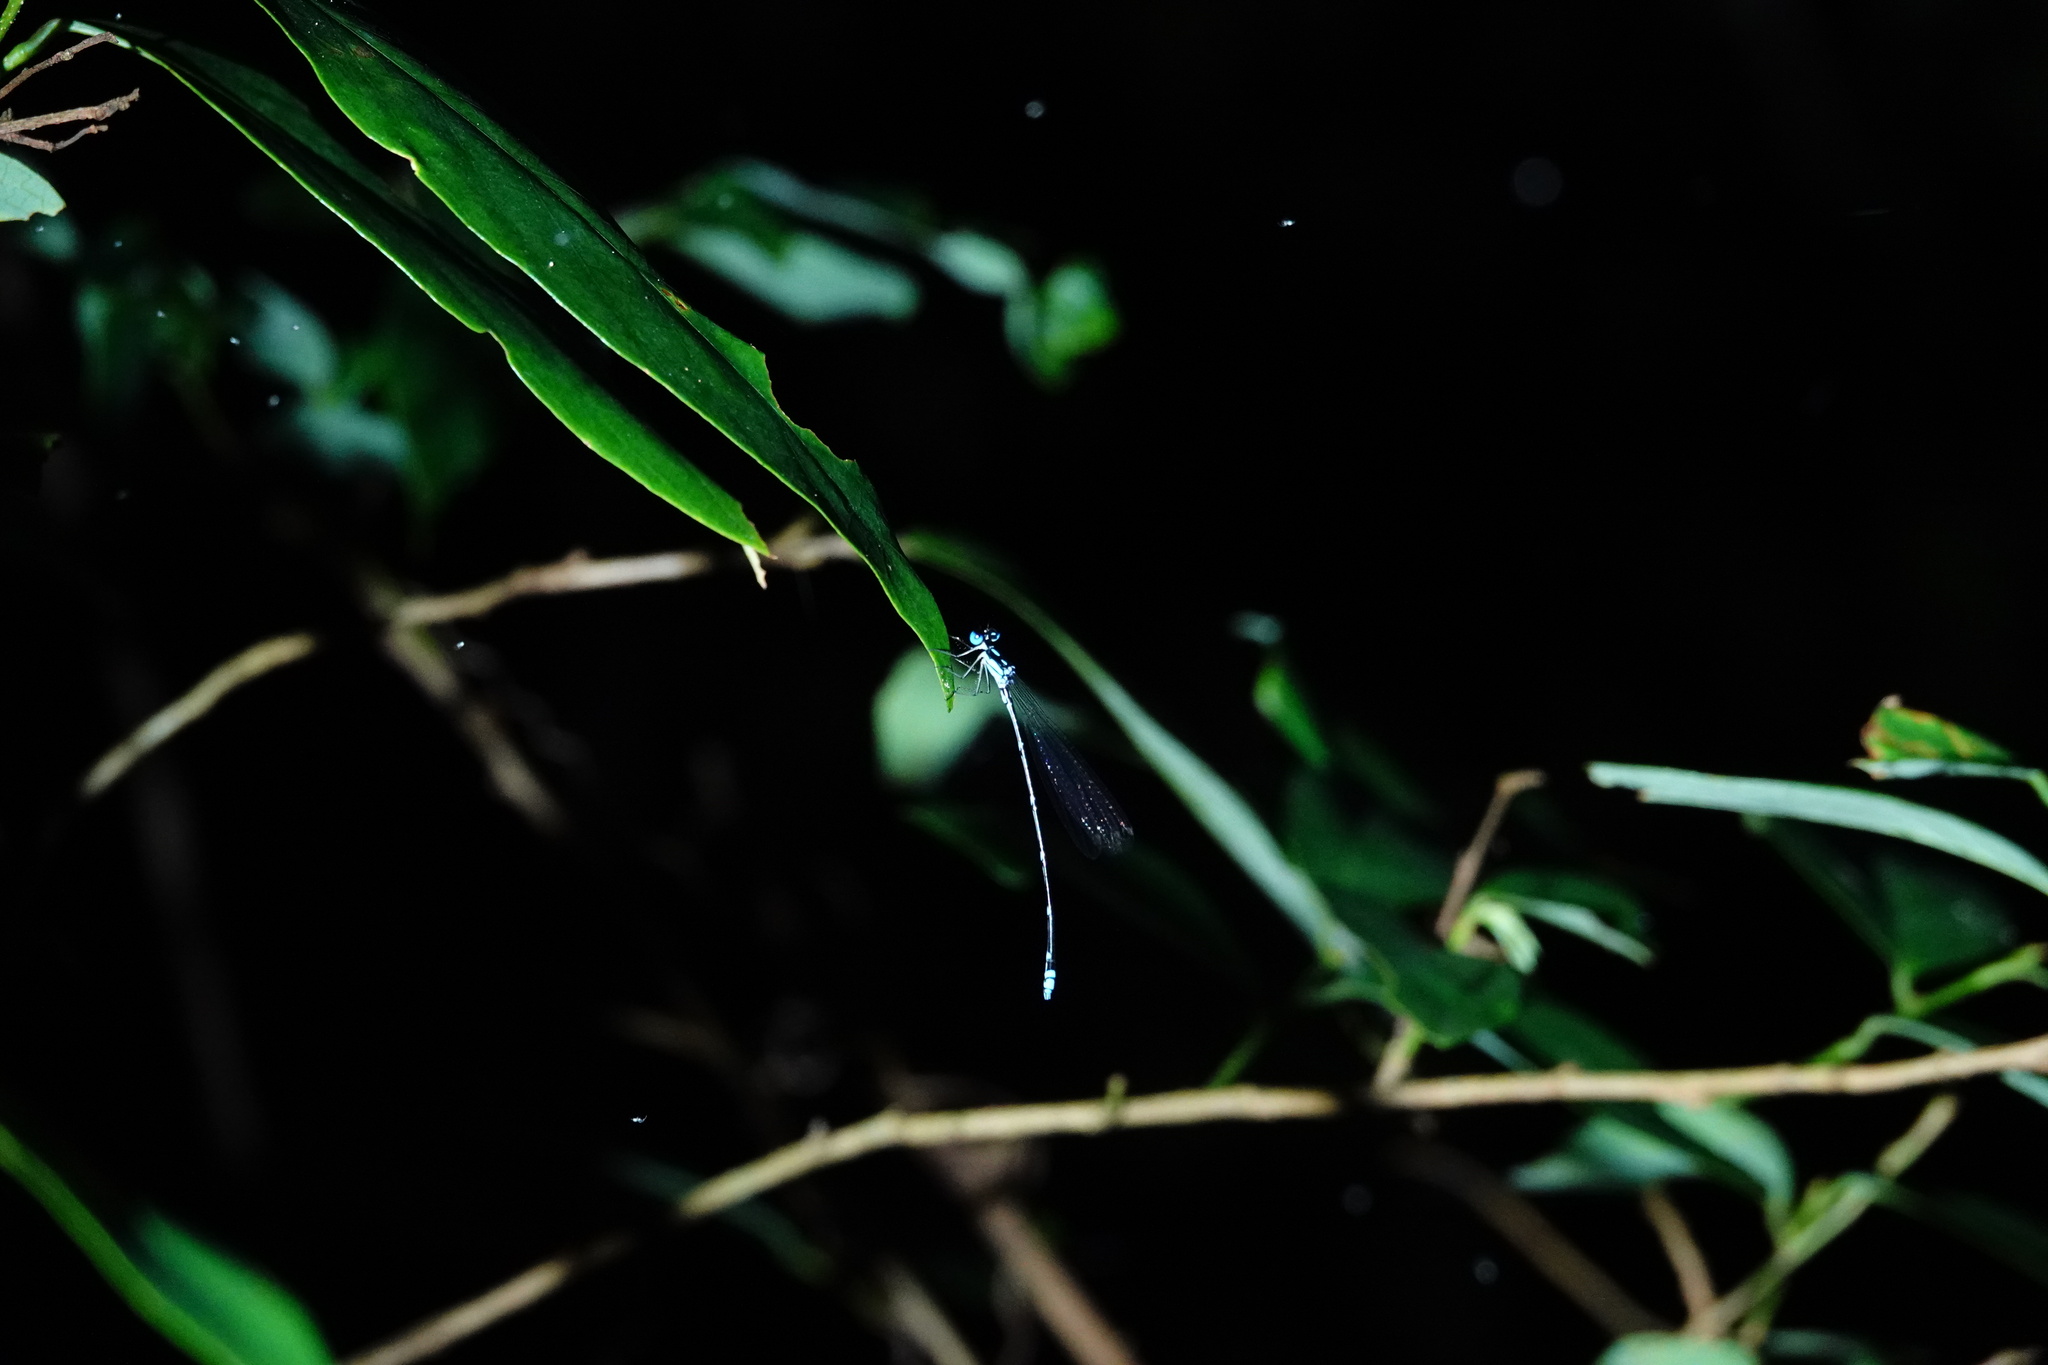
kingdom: Animalia
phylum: Arthropoda
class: Insecta
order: Odonata
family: Platycnemididae
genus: Coeliccia
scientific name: Coeliccia cyanomelas
